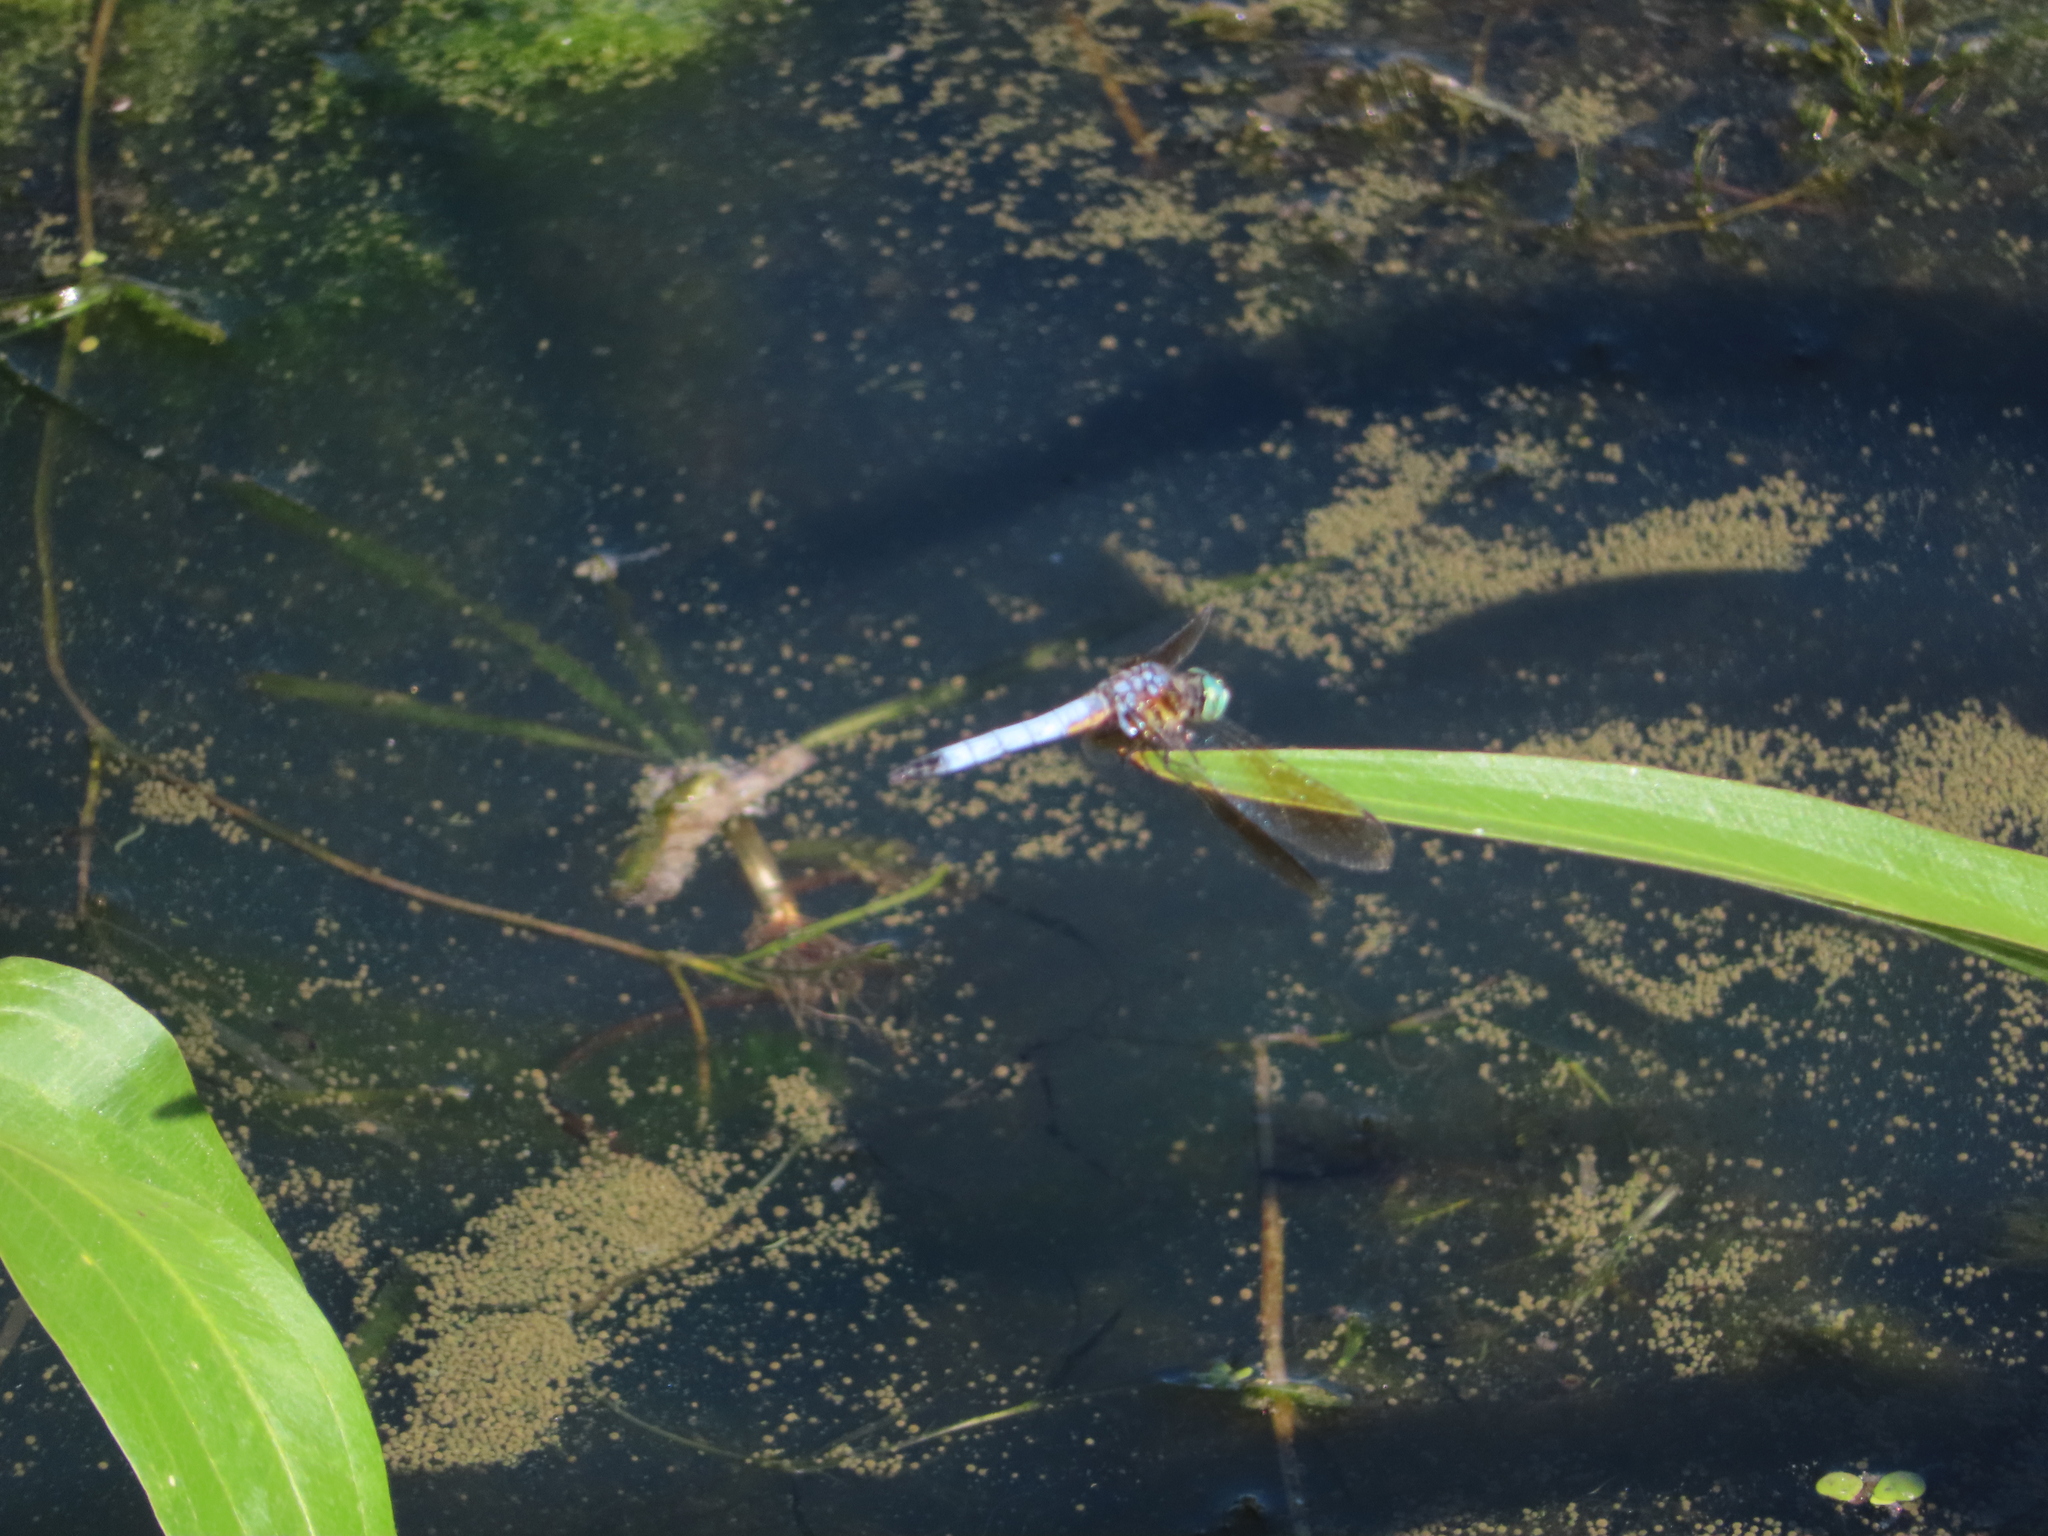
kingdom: Animalia
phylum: Arthropoda
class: Insecta
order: Odonata
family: Libellulidae
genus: Pachydiplax
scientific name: Pachydiplax longipennis
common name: Blue dasher
